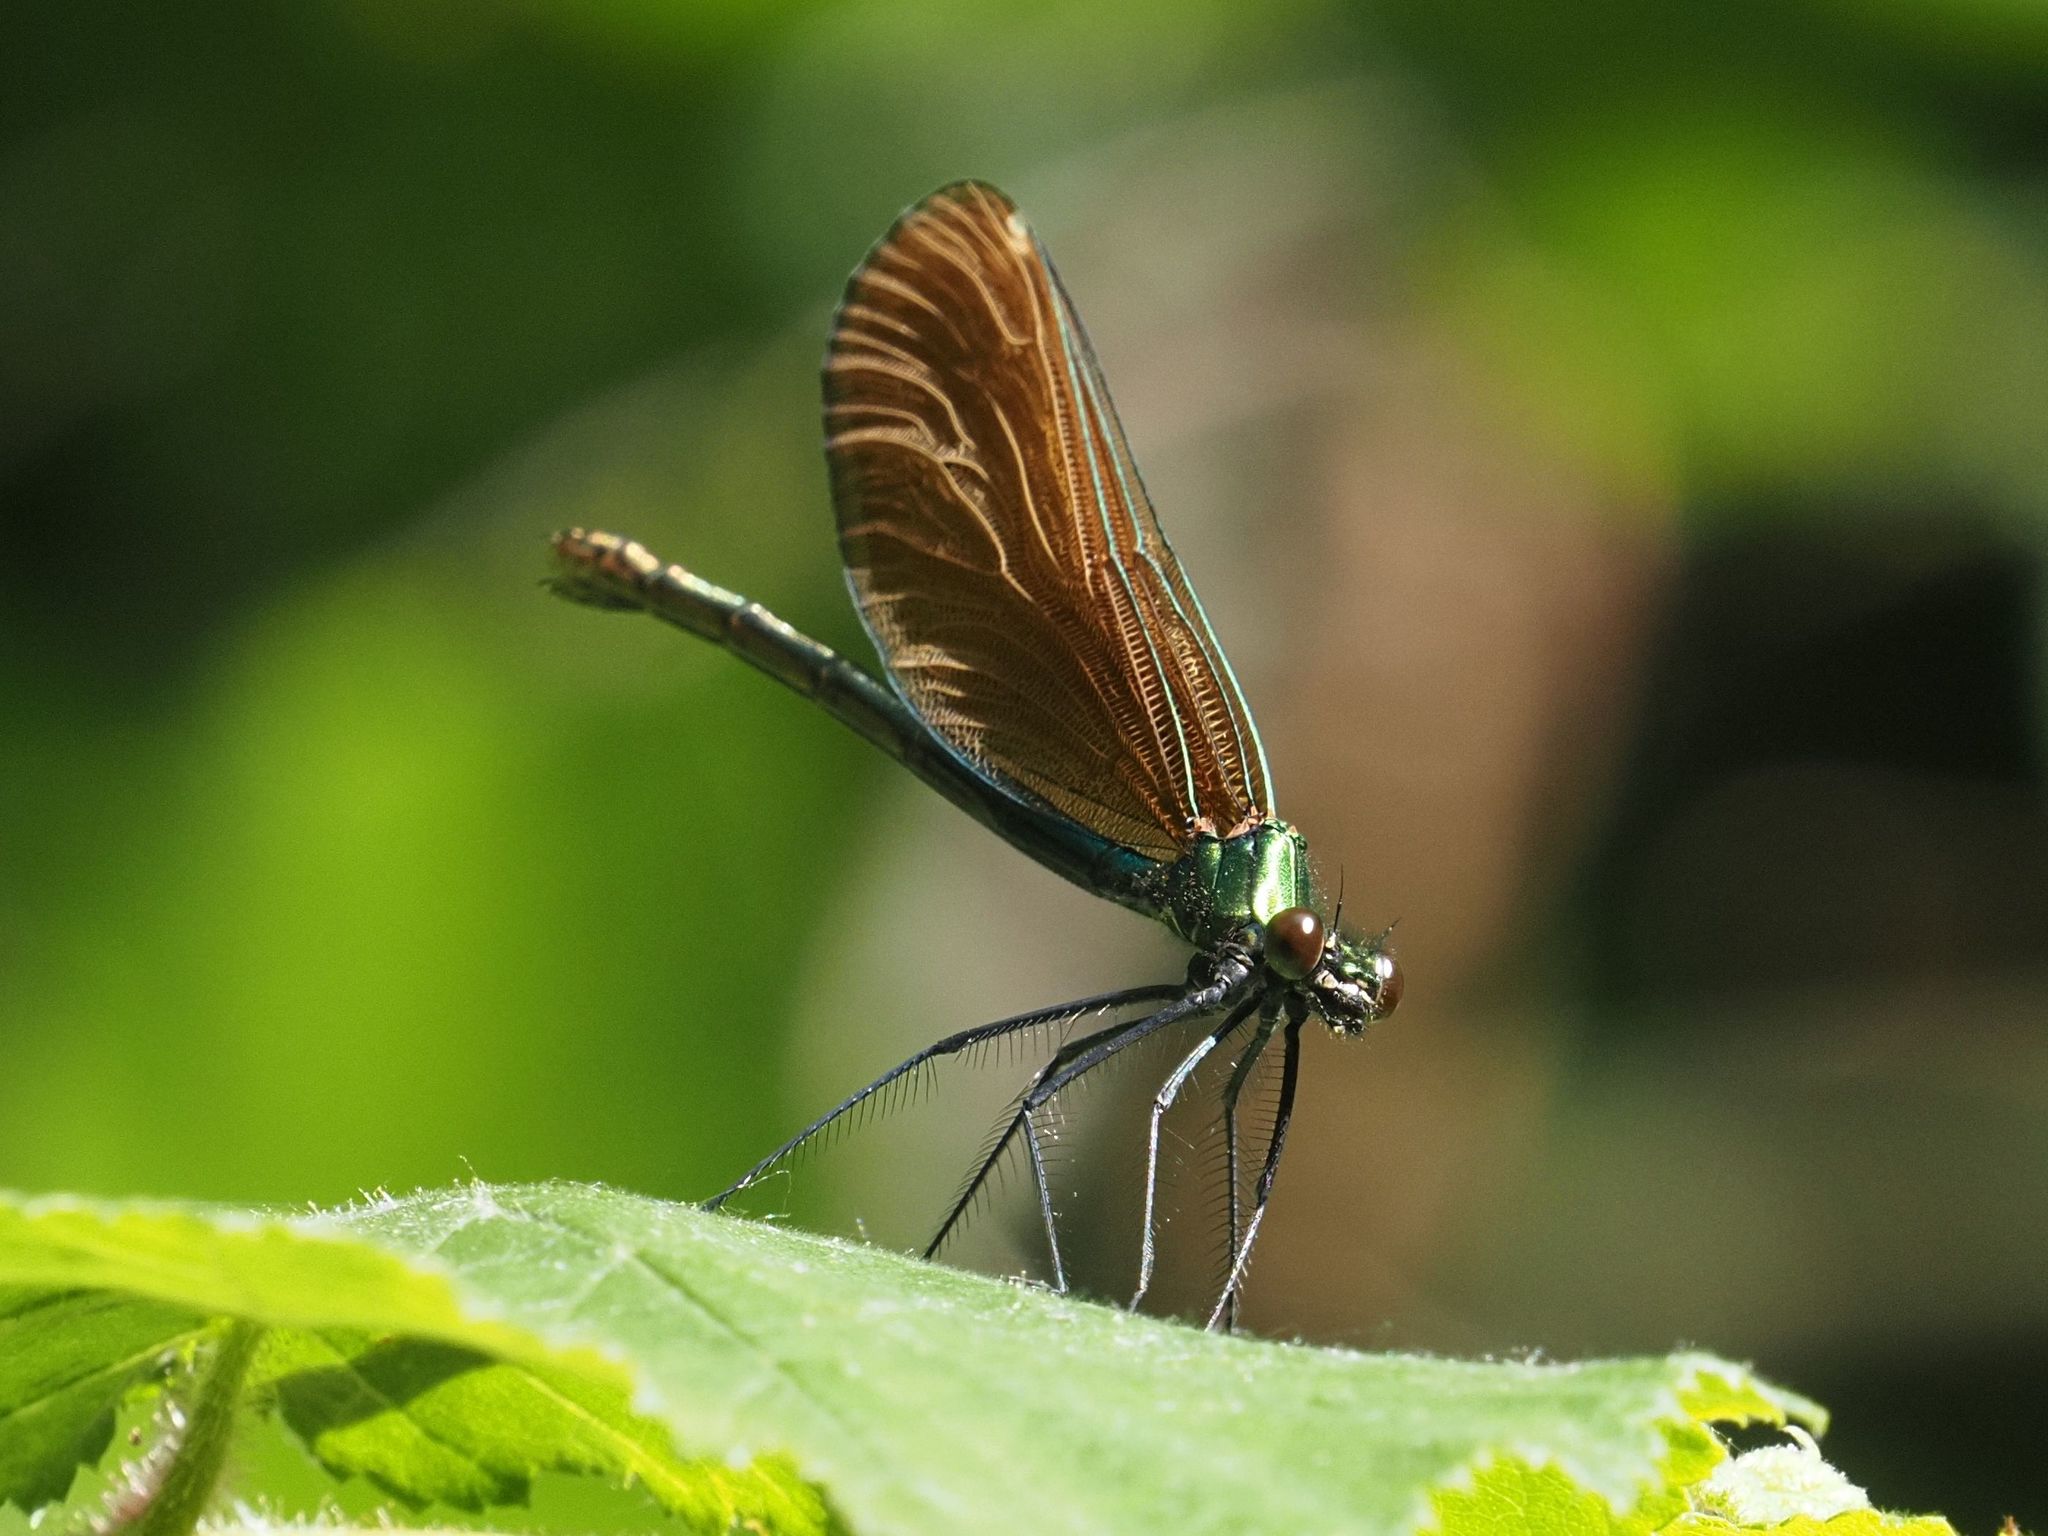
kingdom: Animalia
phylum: Arthropoda
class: Insecta
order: Odonata
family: Calopterygidae
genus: Calopteryx
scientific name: Calopteryx virgo
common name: Beautiful demoiselle
